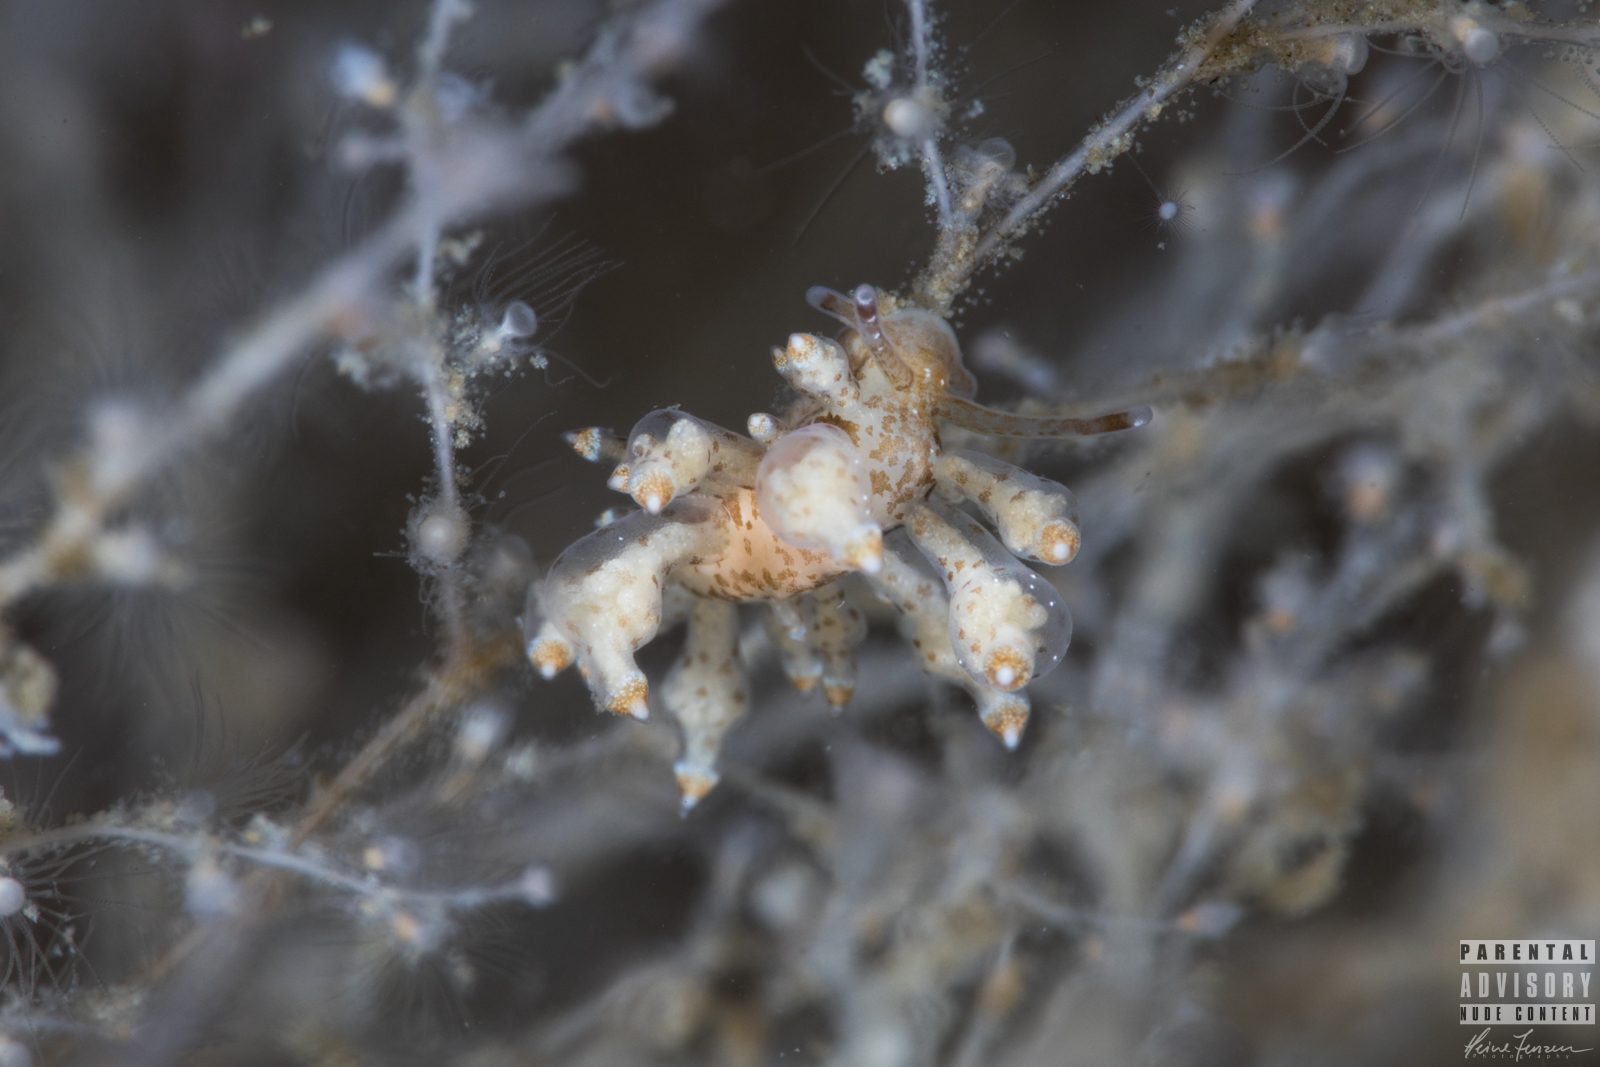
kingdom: Animalia
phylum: Mollusca
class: Gastropoda
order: Nudibranchia
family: Eubranchidae
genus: Eubranchus
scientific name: Eubranchus scintillans
